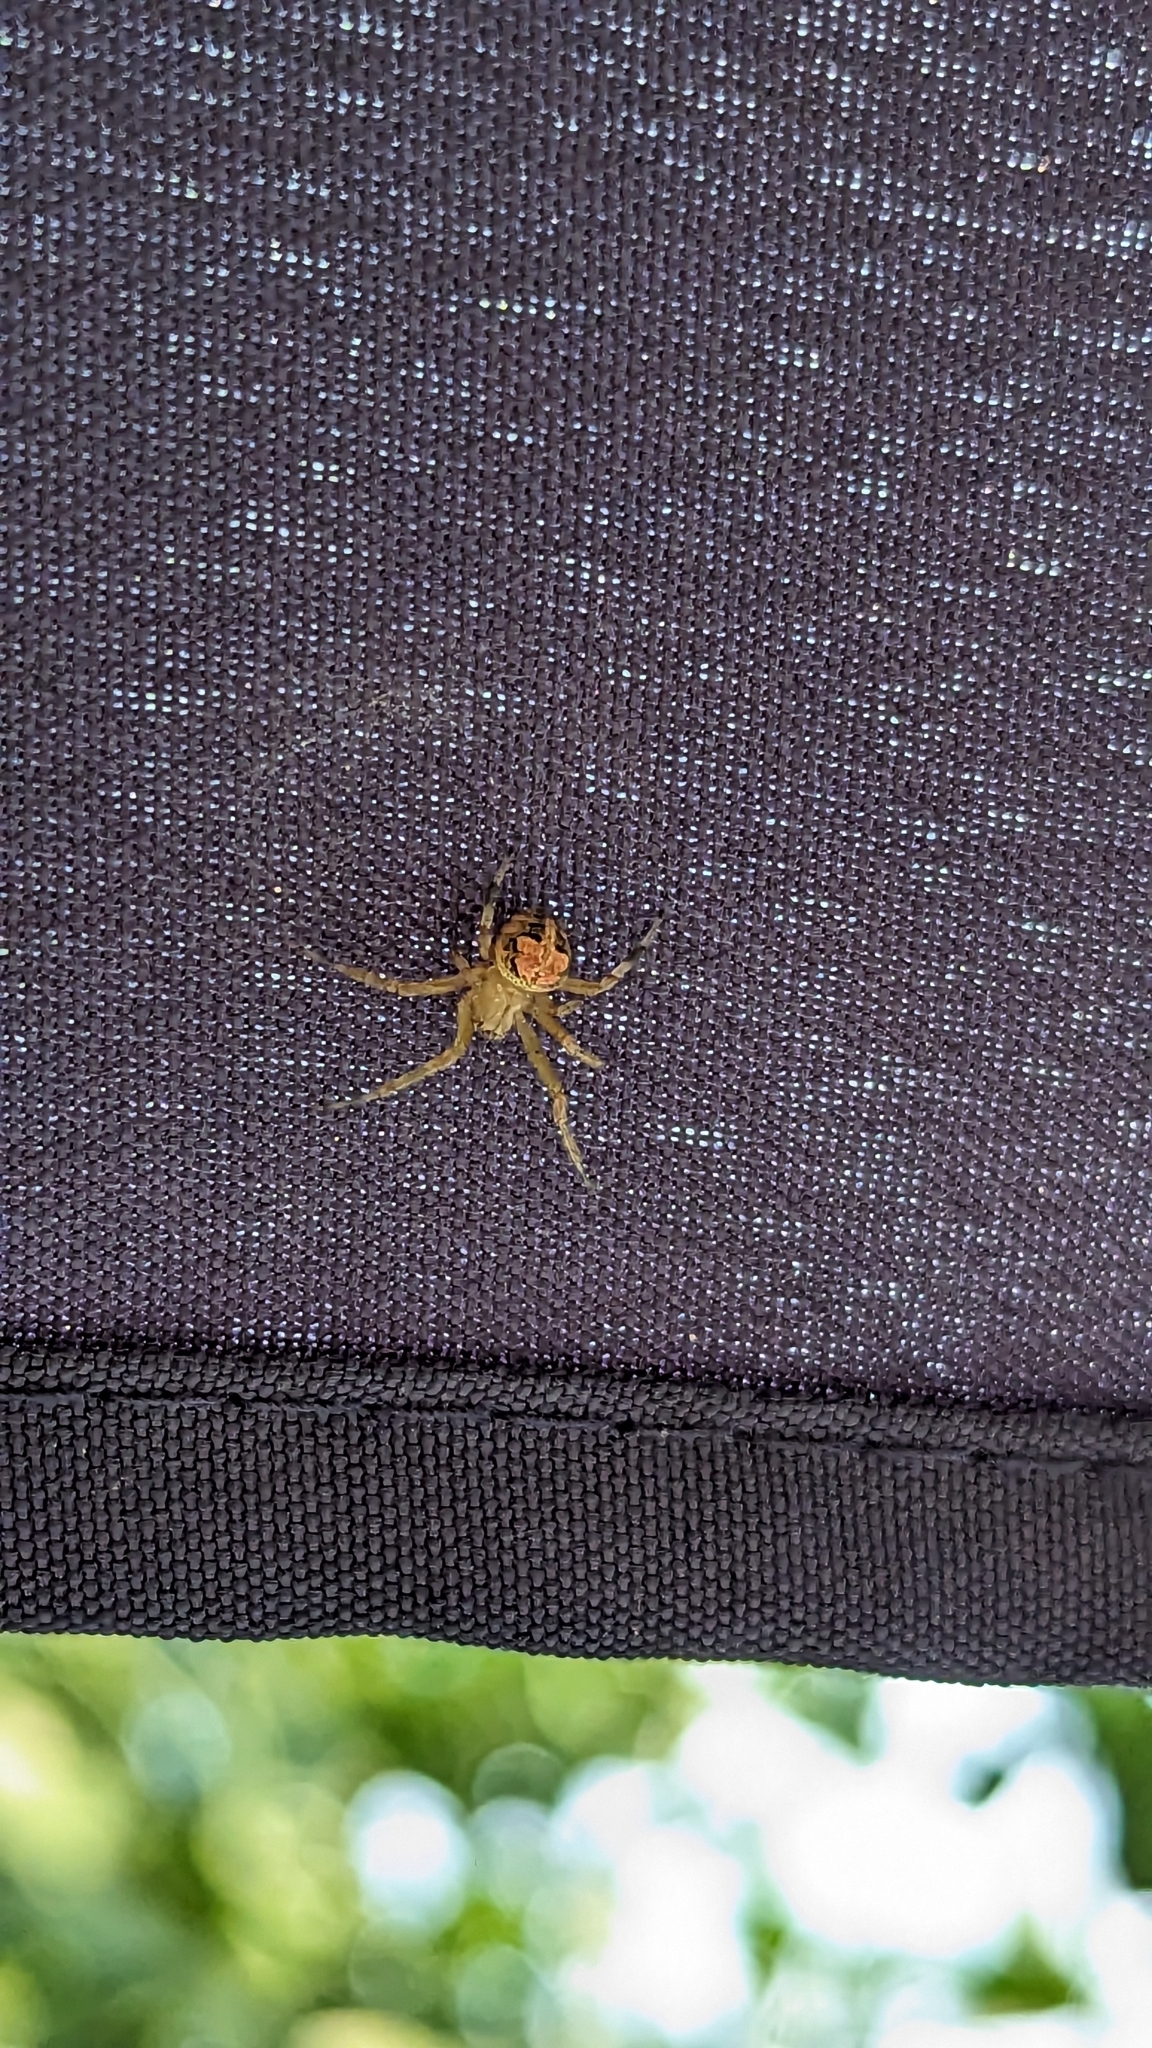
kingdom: Animalia
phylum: Arthropoda
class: Arachnida
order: Araneae
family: Araneidae
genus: Araneus
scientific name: Araneus pegnia
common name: Orb weavers
